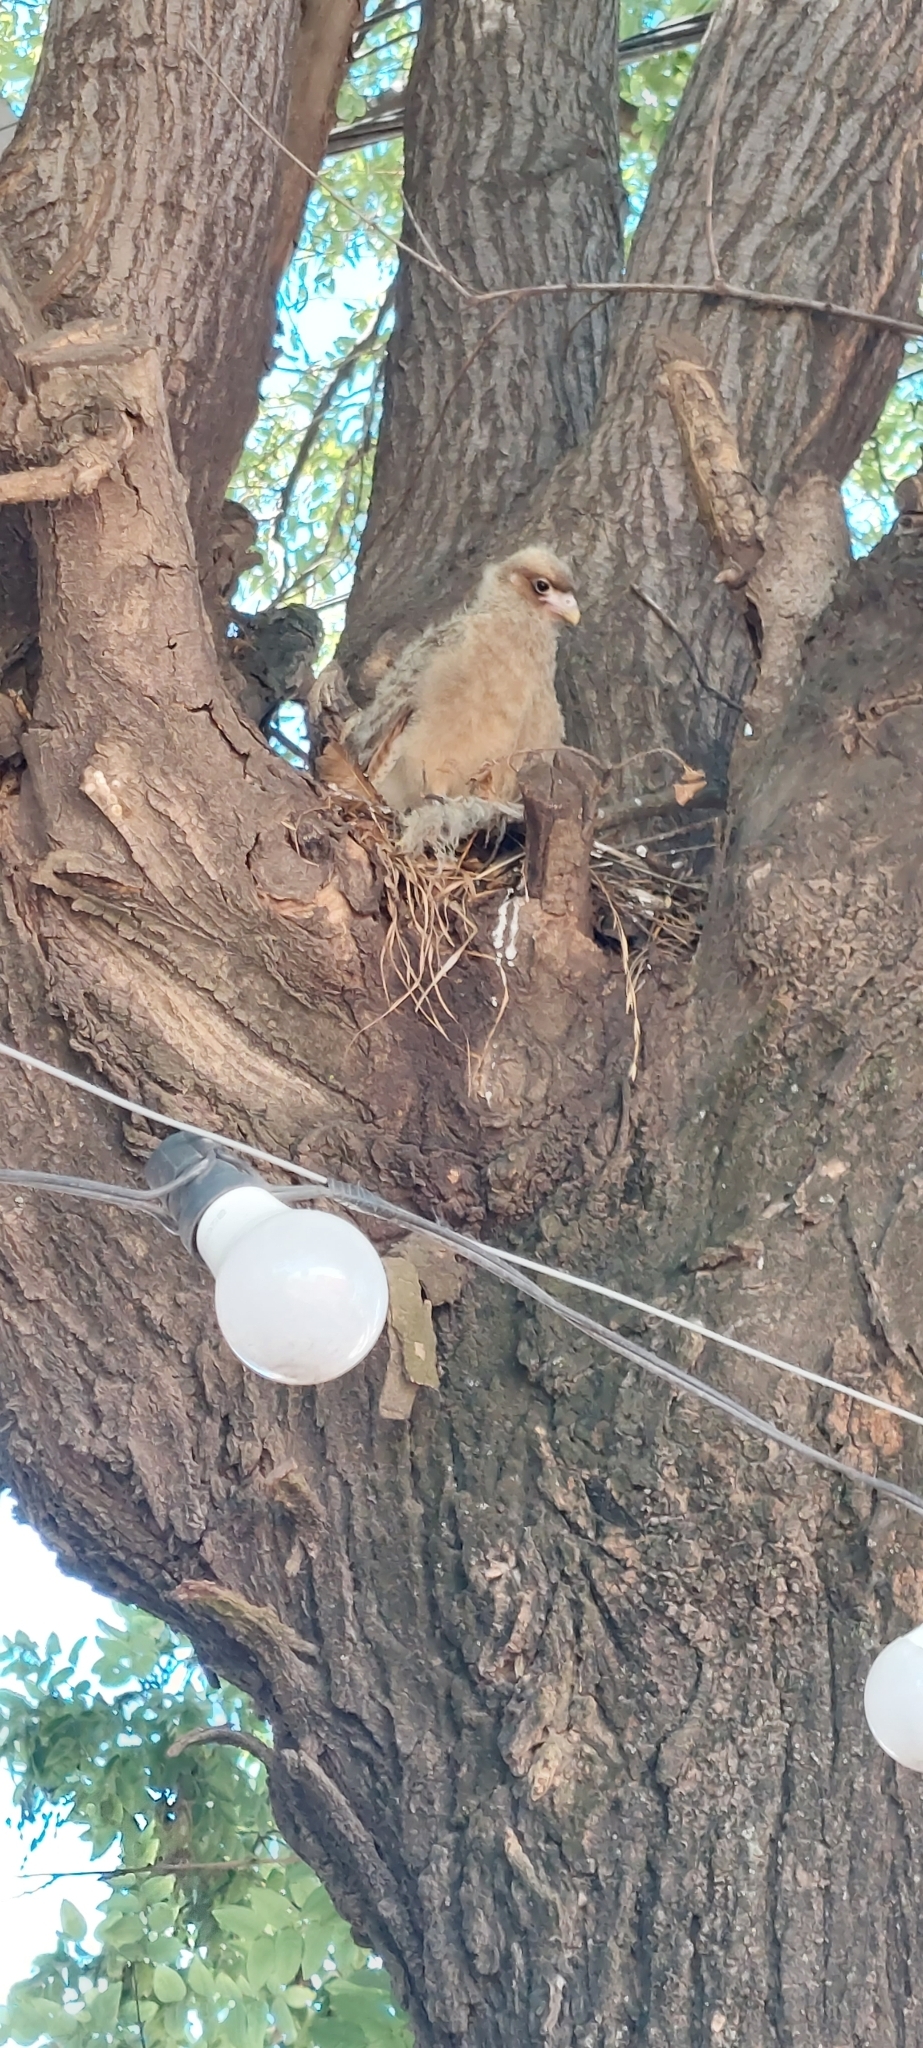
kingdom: Animalia
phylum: Chordata
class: Aves
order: Falconiformes
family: Falconidae
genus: Daptrius
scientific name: Daptrius
